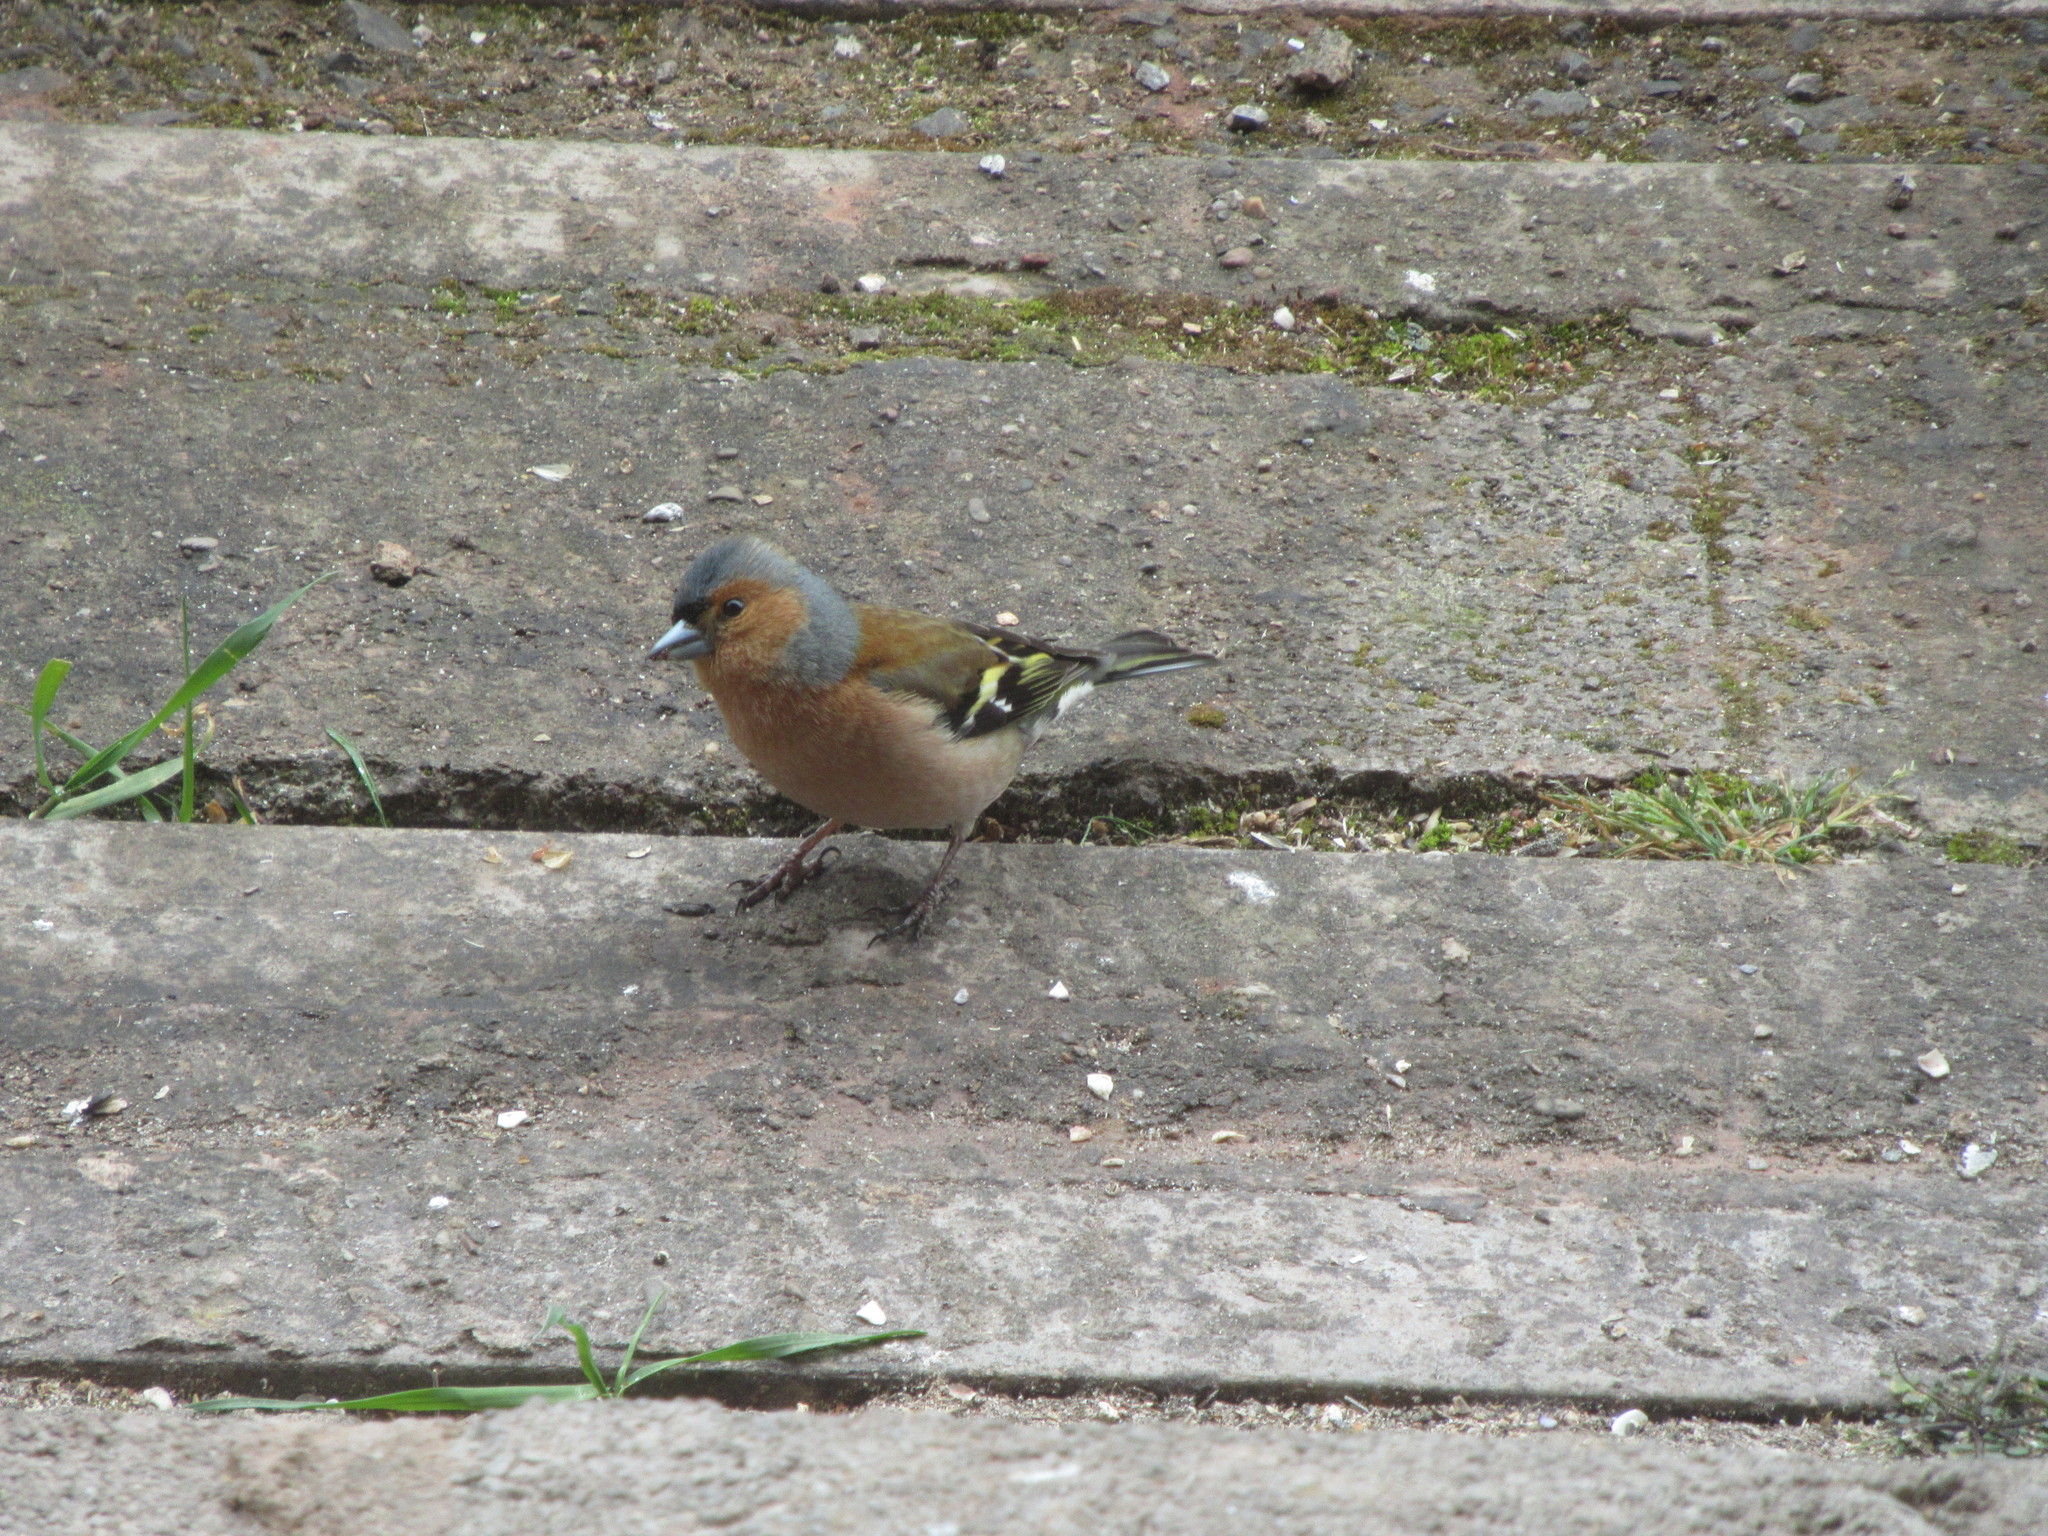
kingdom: Animalia
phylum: Chordata
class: Aves
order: Passeriformes
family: Fringillidae
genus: Fringilla
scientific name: Fringilla coelebs
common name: Common chaffinch
